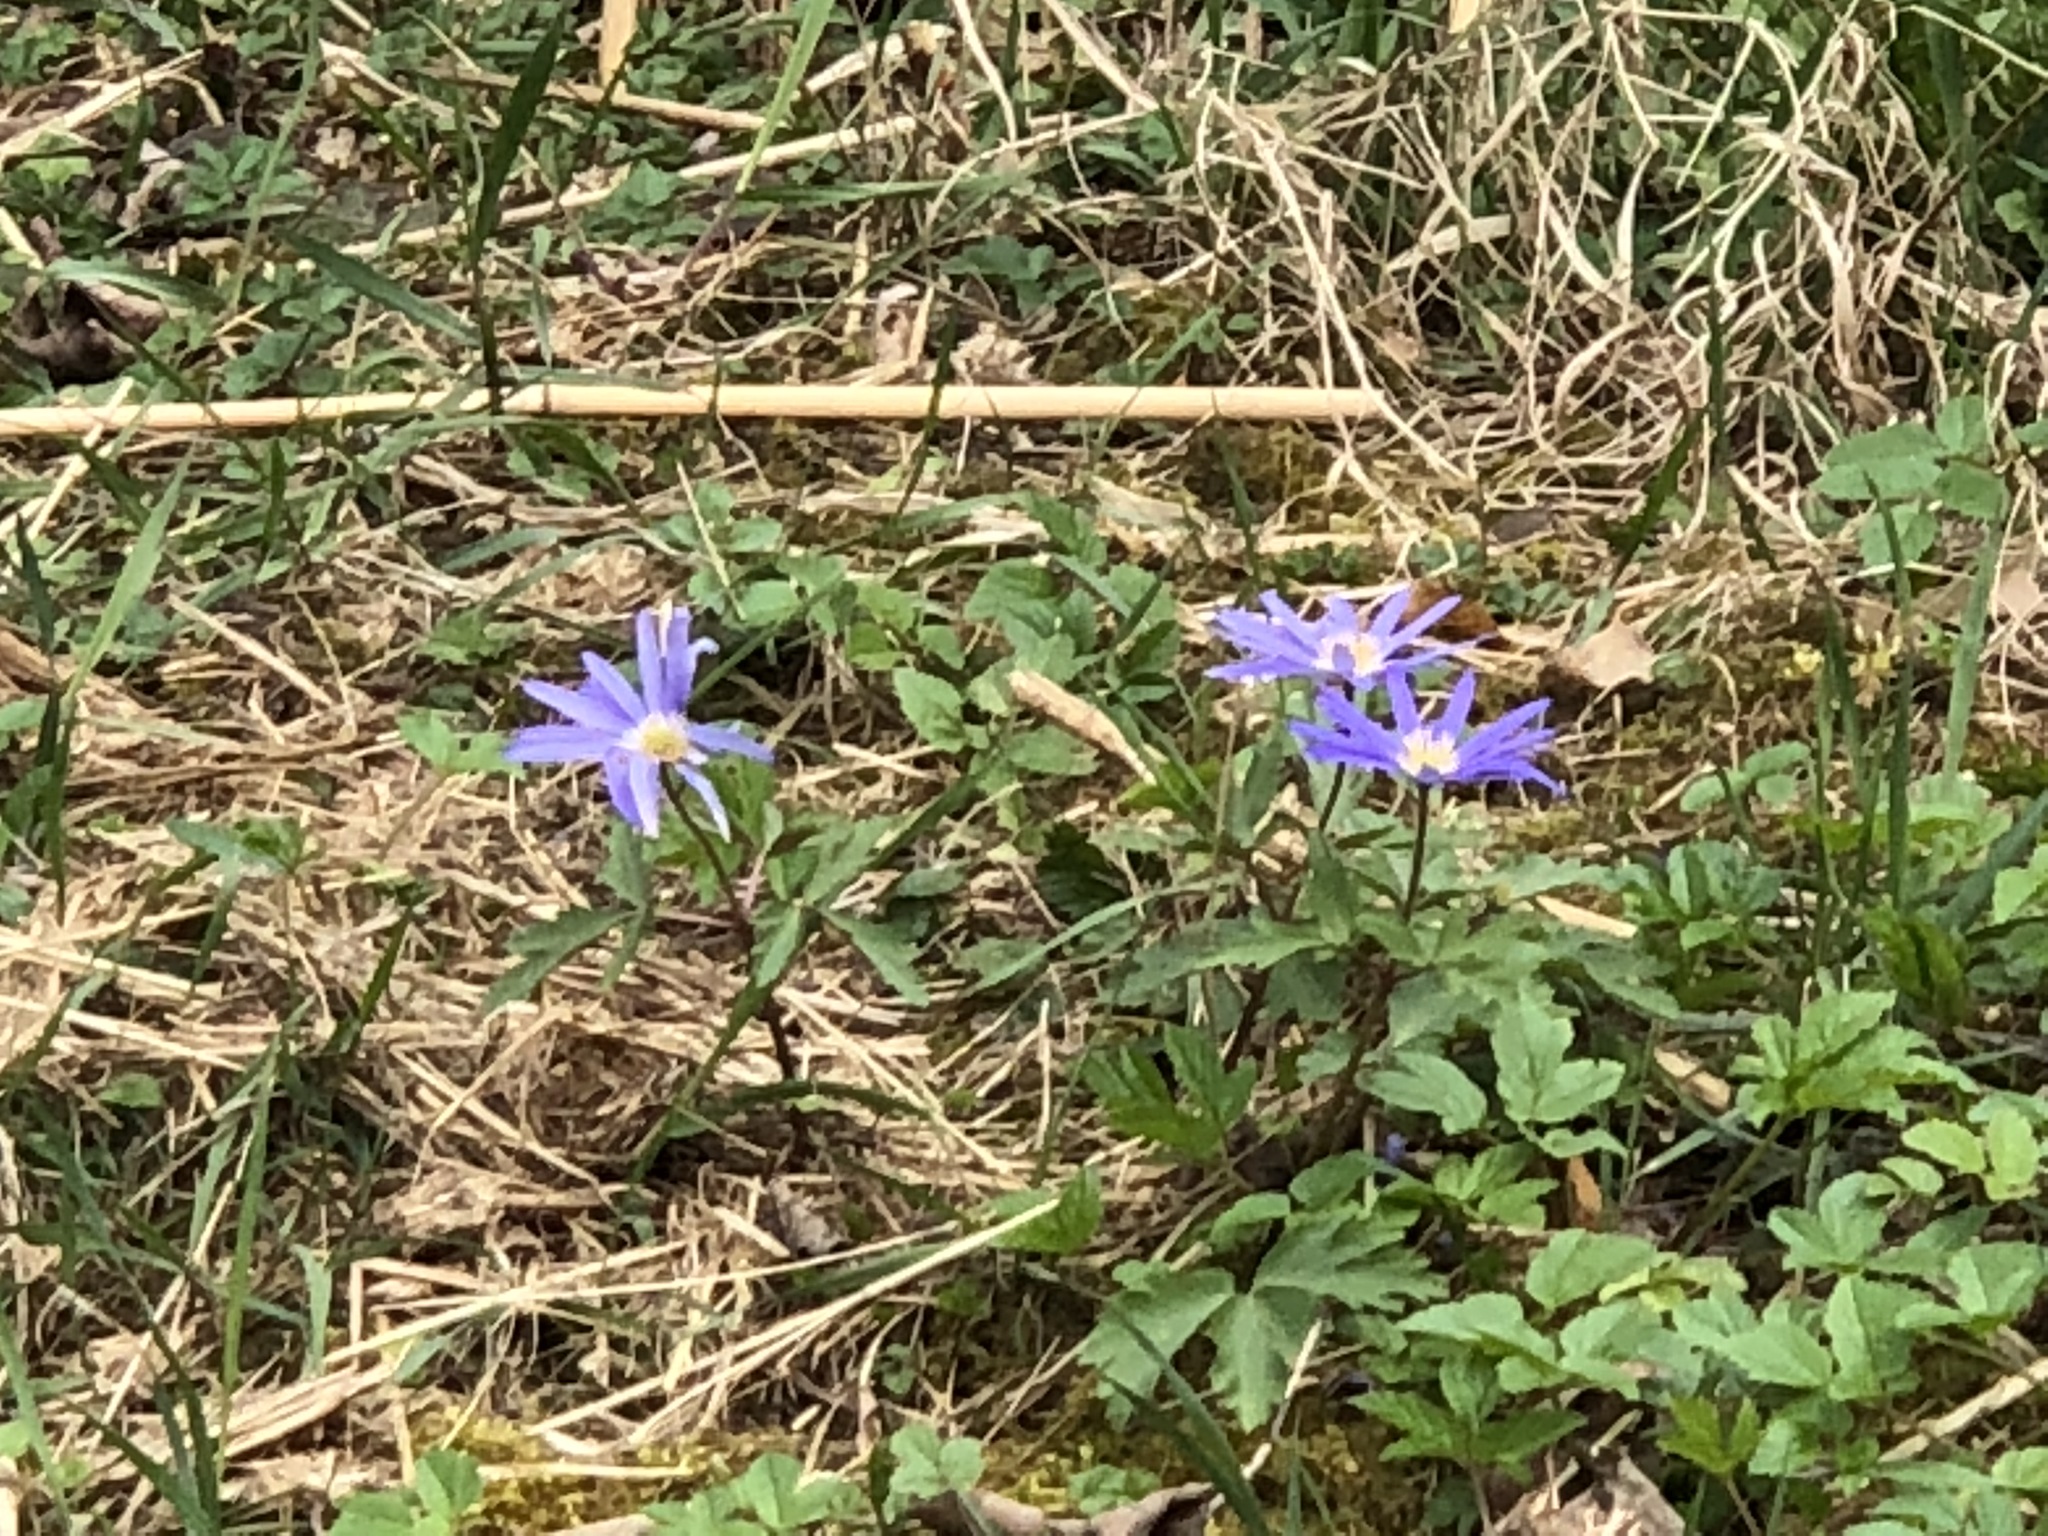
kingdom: Plantae
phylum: Tracheophyta
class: Magnoliopsida
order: Ranunculales
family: Ranunculaceae
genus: Anemone
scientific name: Anemone blanda
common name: Balkan anemone
